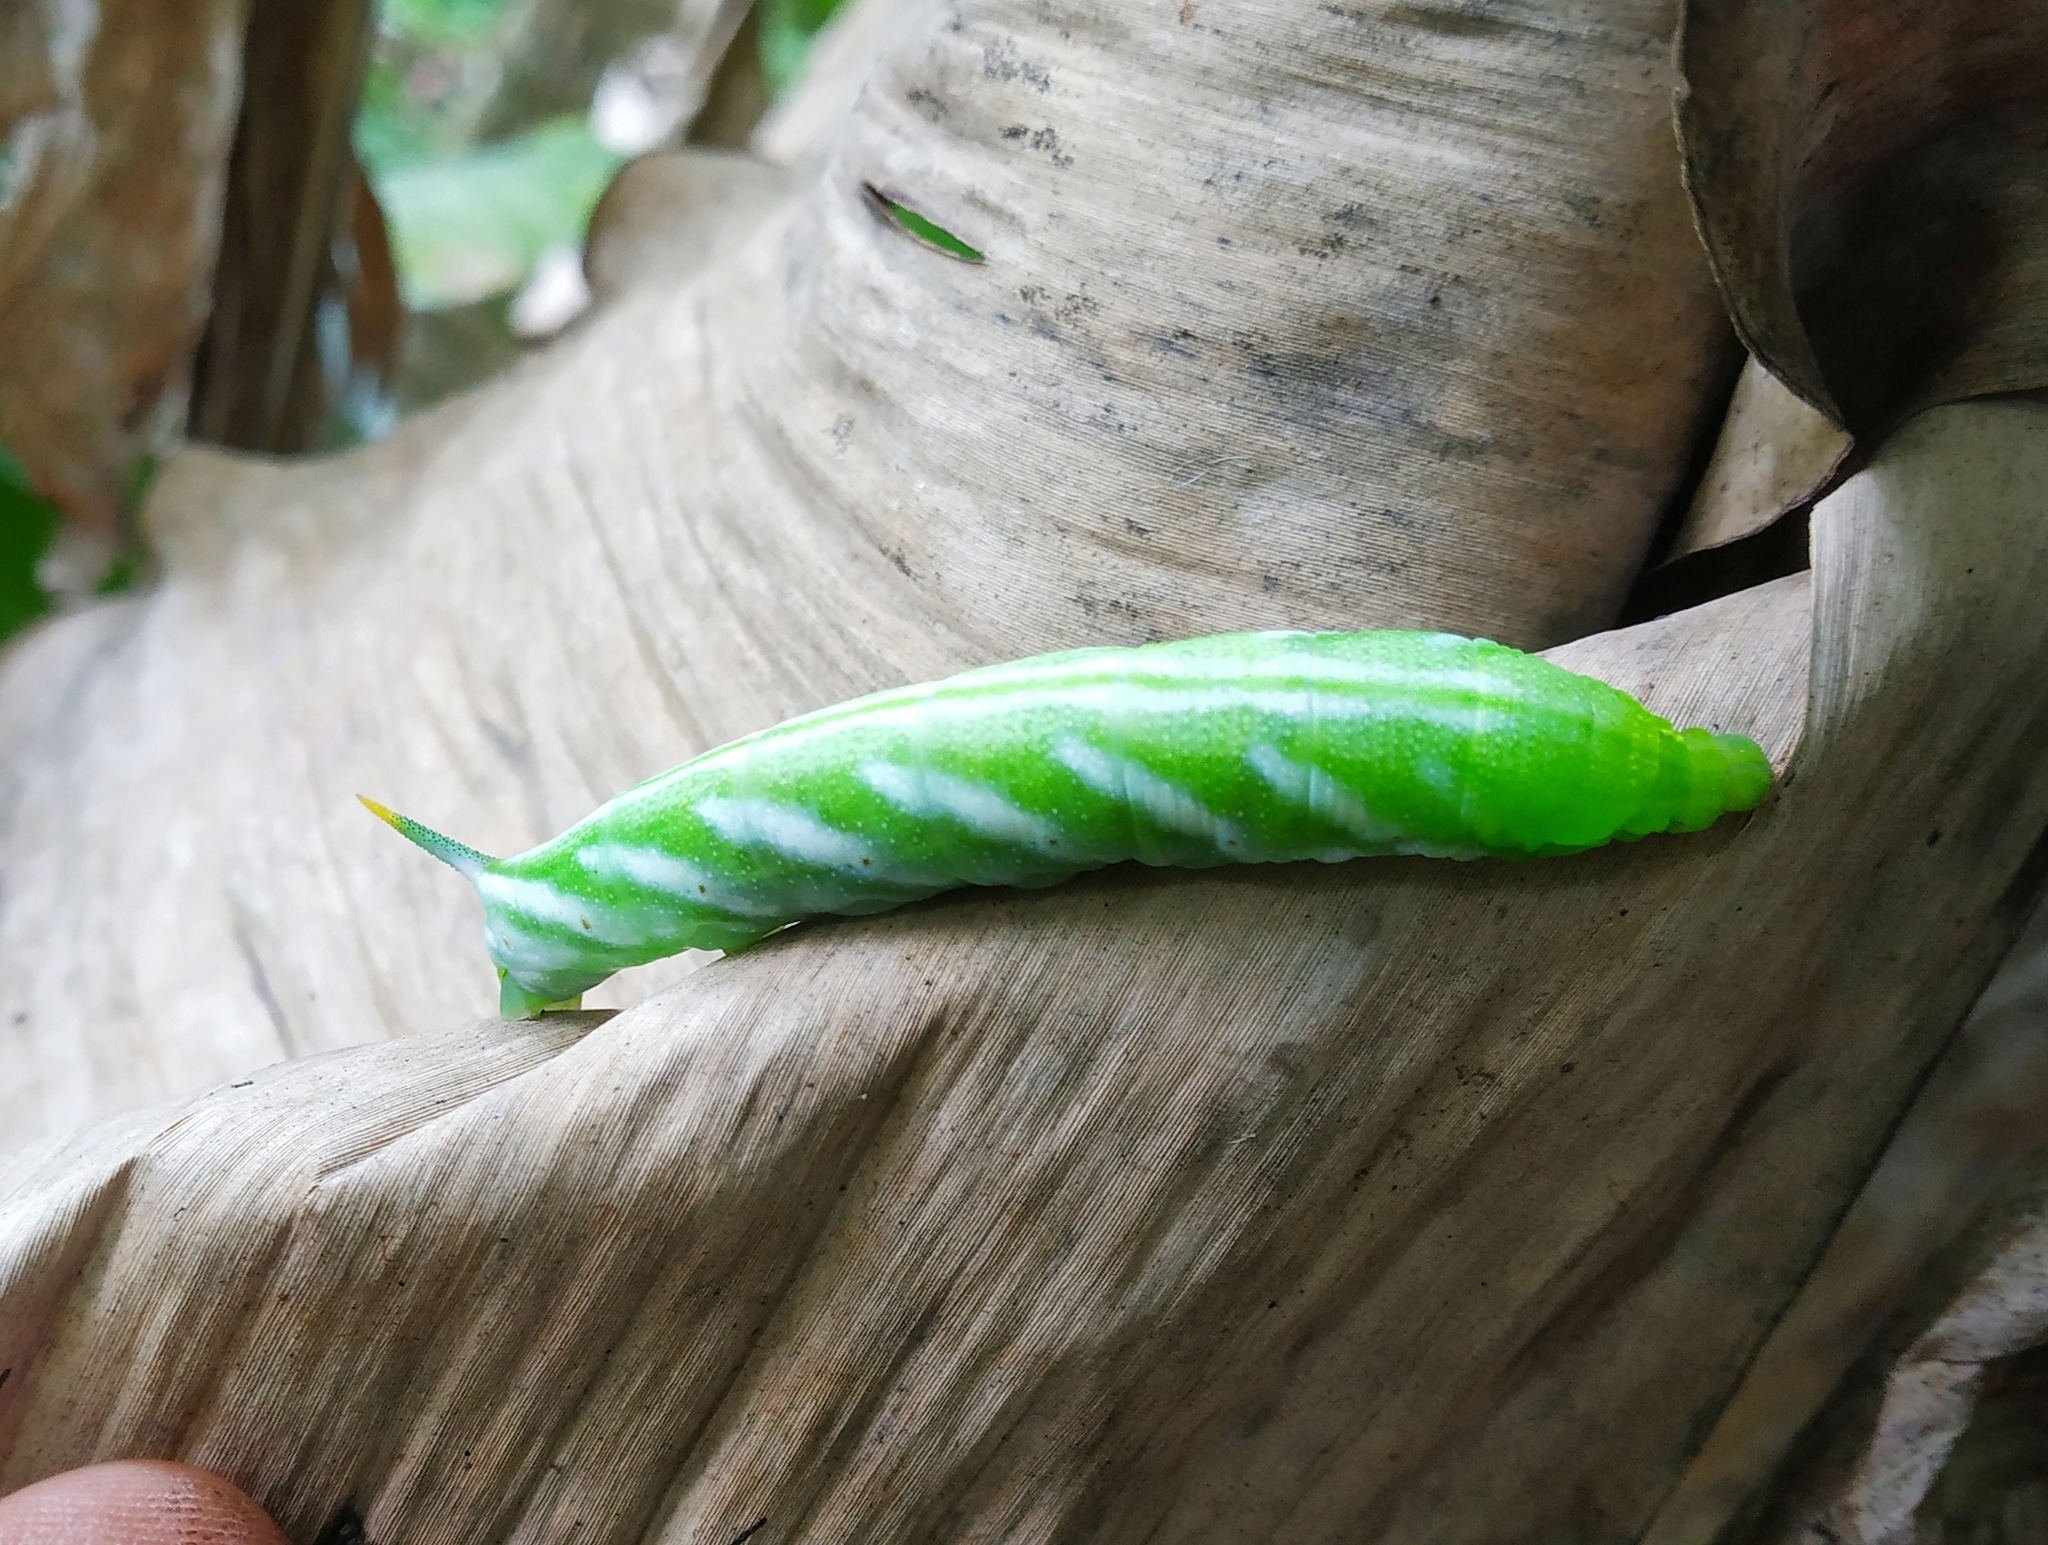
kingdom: Animalia
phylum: Arthropoda
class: Insecta
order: Lepidoptera
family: Sphingidae
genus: Macroglossum
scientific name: Macroglossum vicinum
